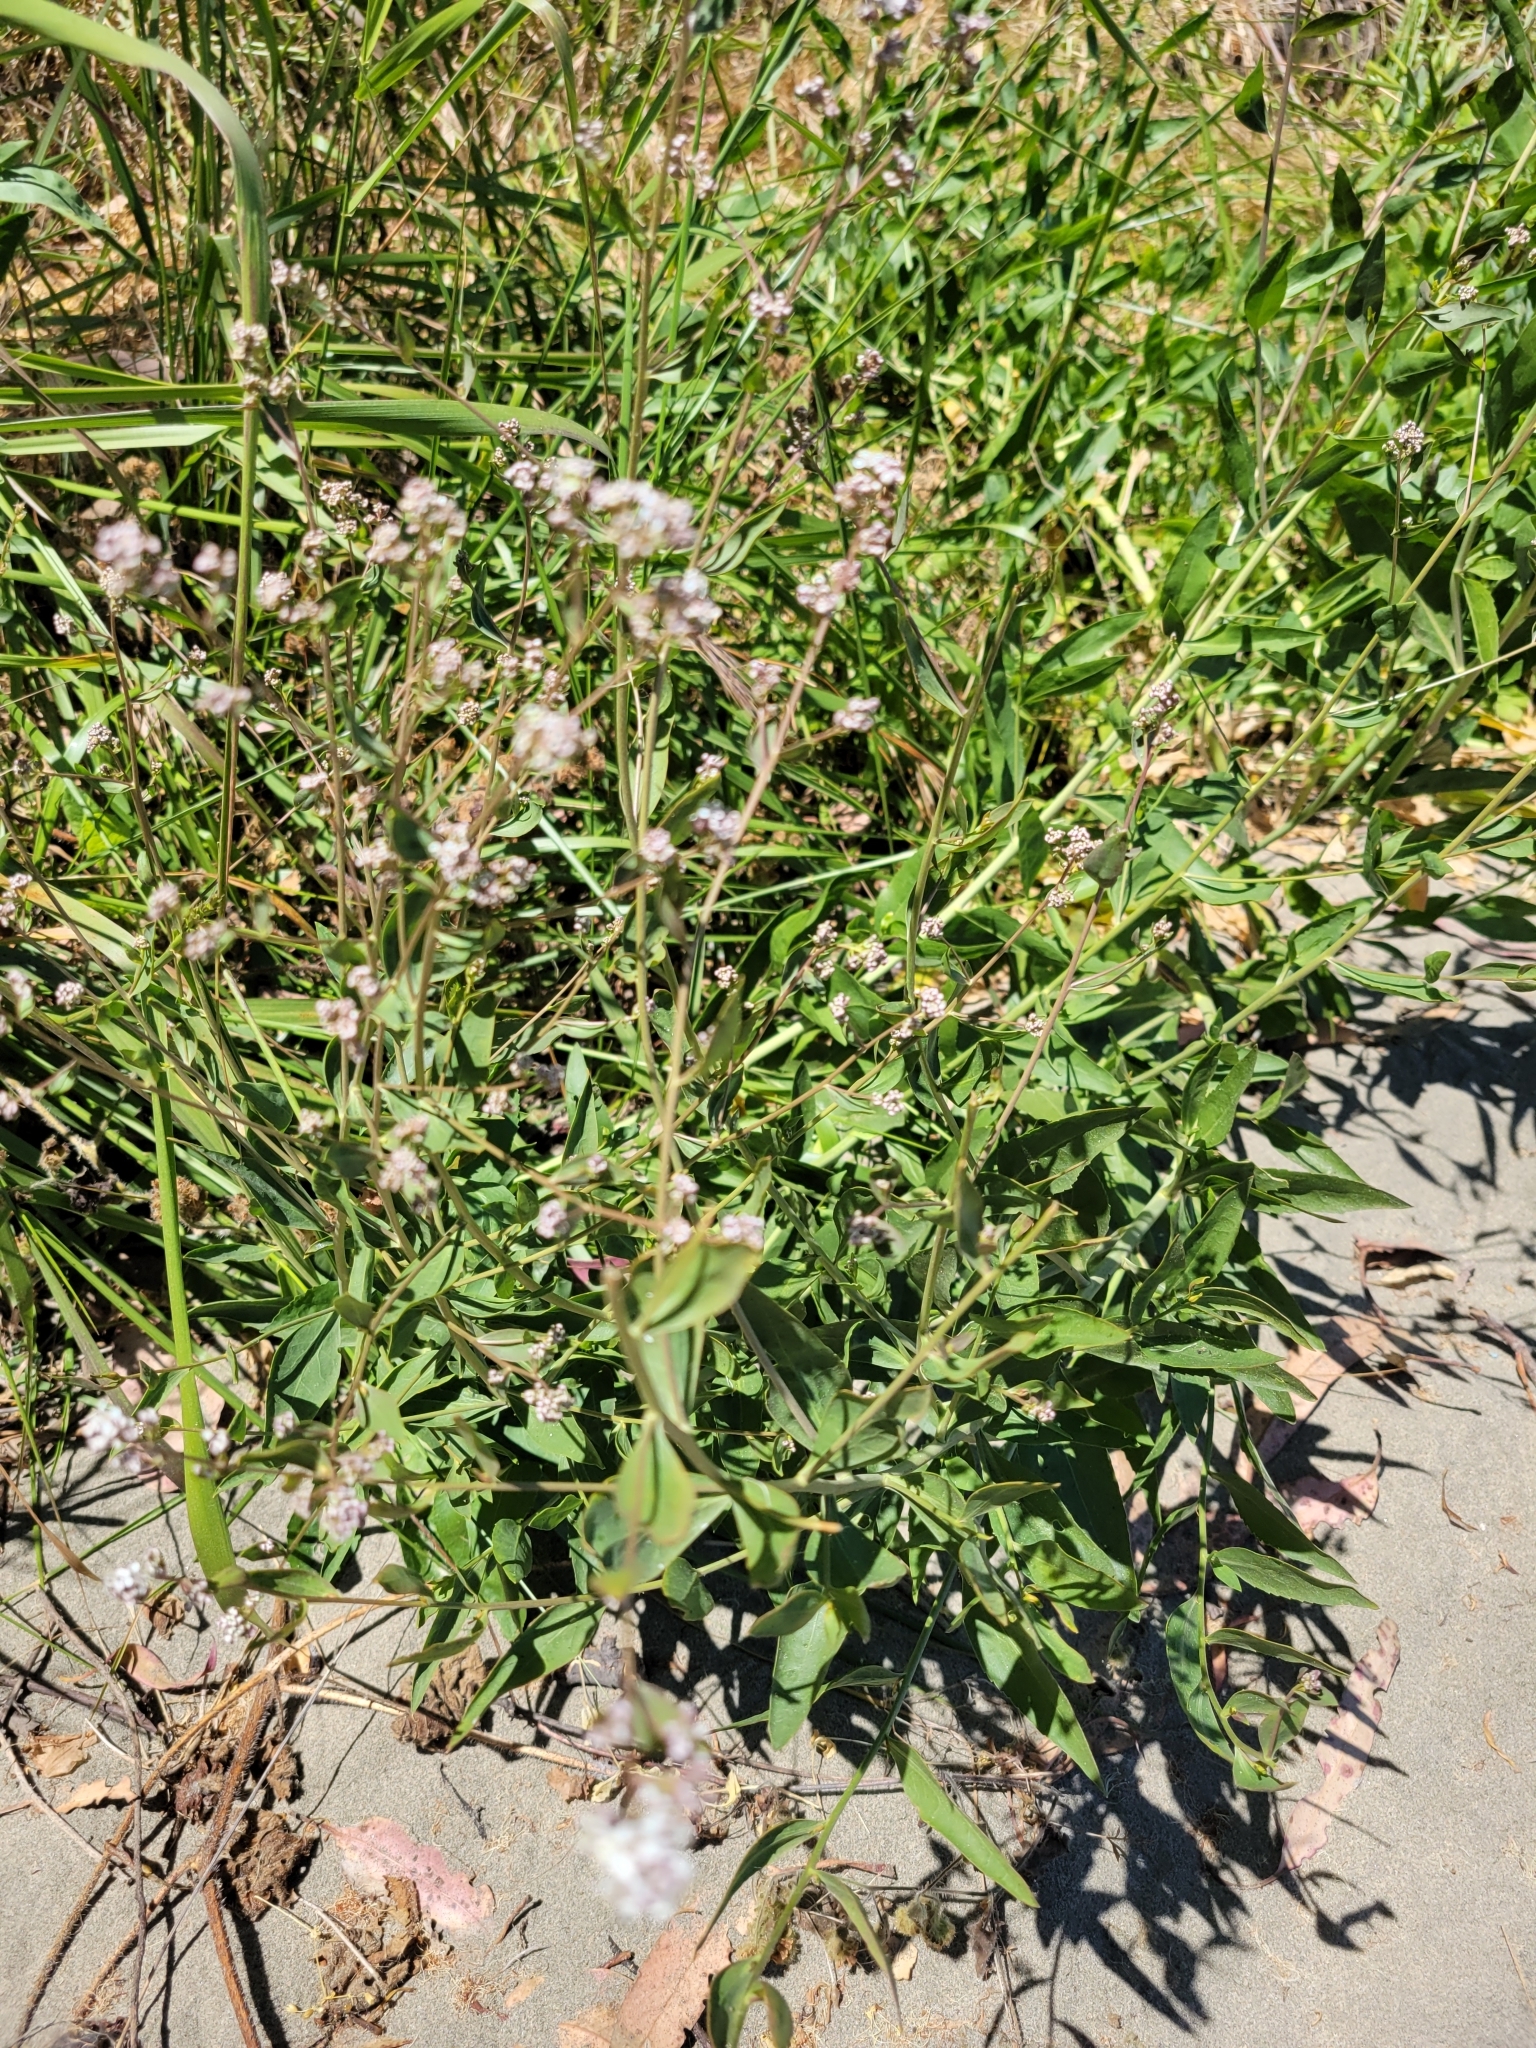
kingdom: Plantae
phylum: Tracheophyta
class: Magnoliopsida
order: Brassicales
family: Brassicaceae
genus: Lepidium
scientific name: Lepidium latifolium
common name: Dittander
